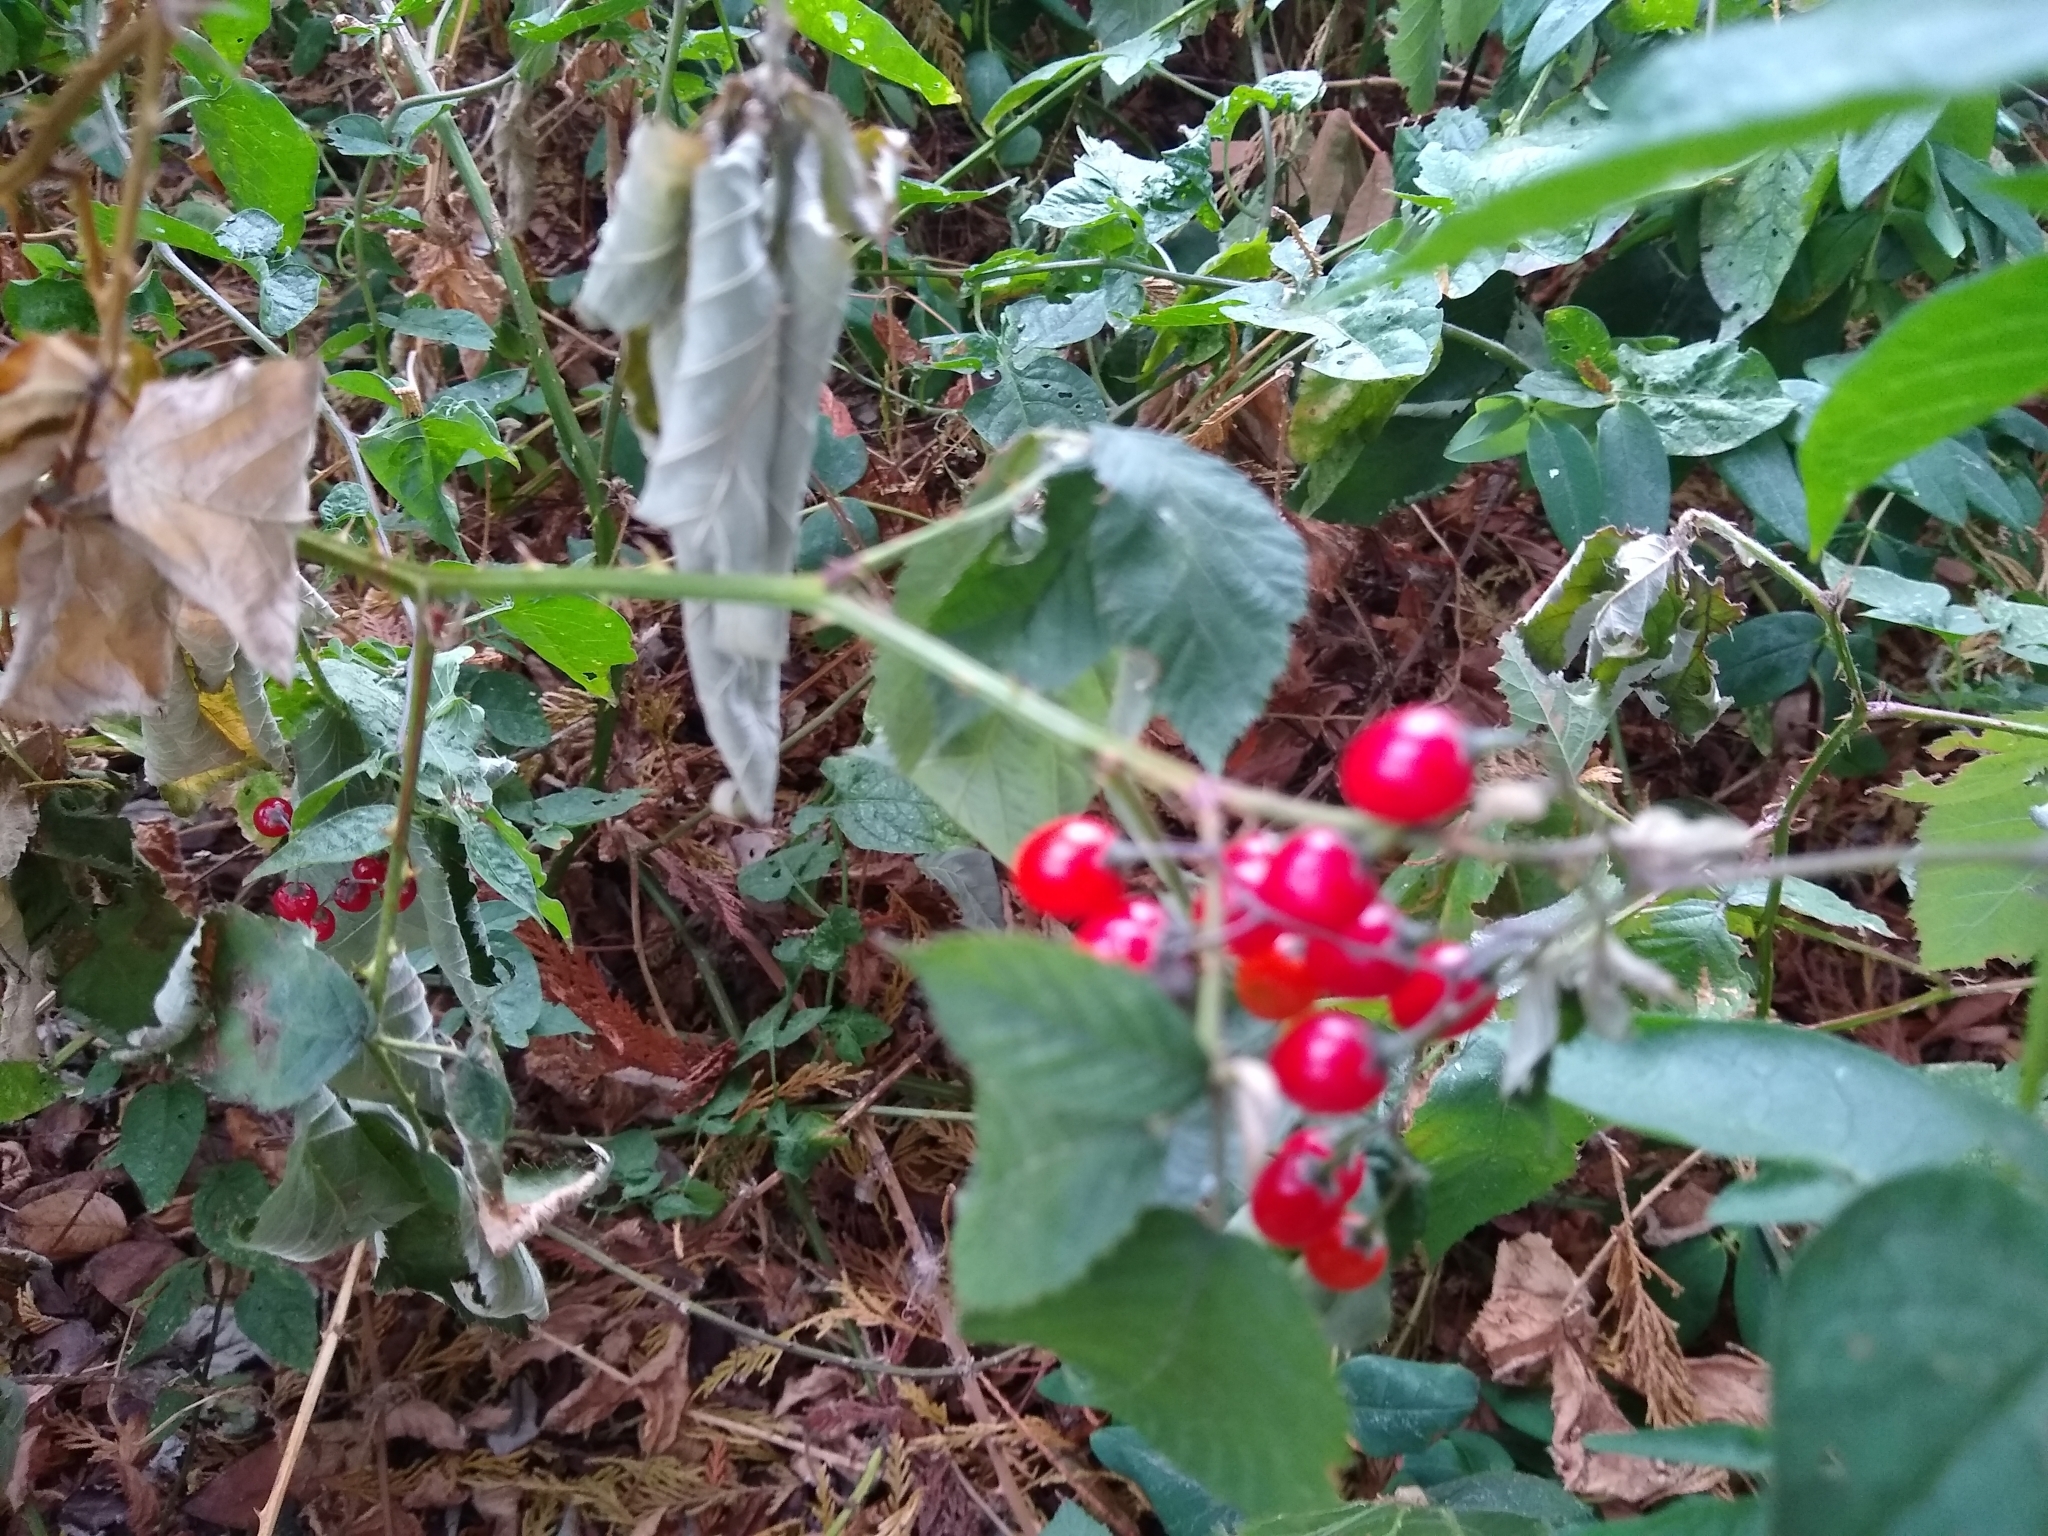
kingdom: Plantae
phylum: Tracheophyta
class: Magnoliopsida
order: Solanales
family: Solanaceae
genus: Solanum
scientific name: Solanum dulcamara
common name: Climbing nightshade
